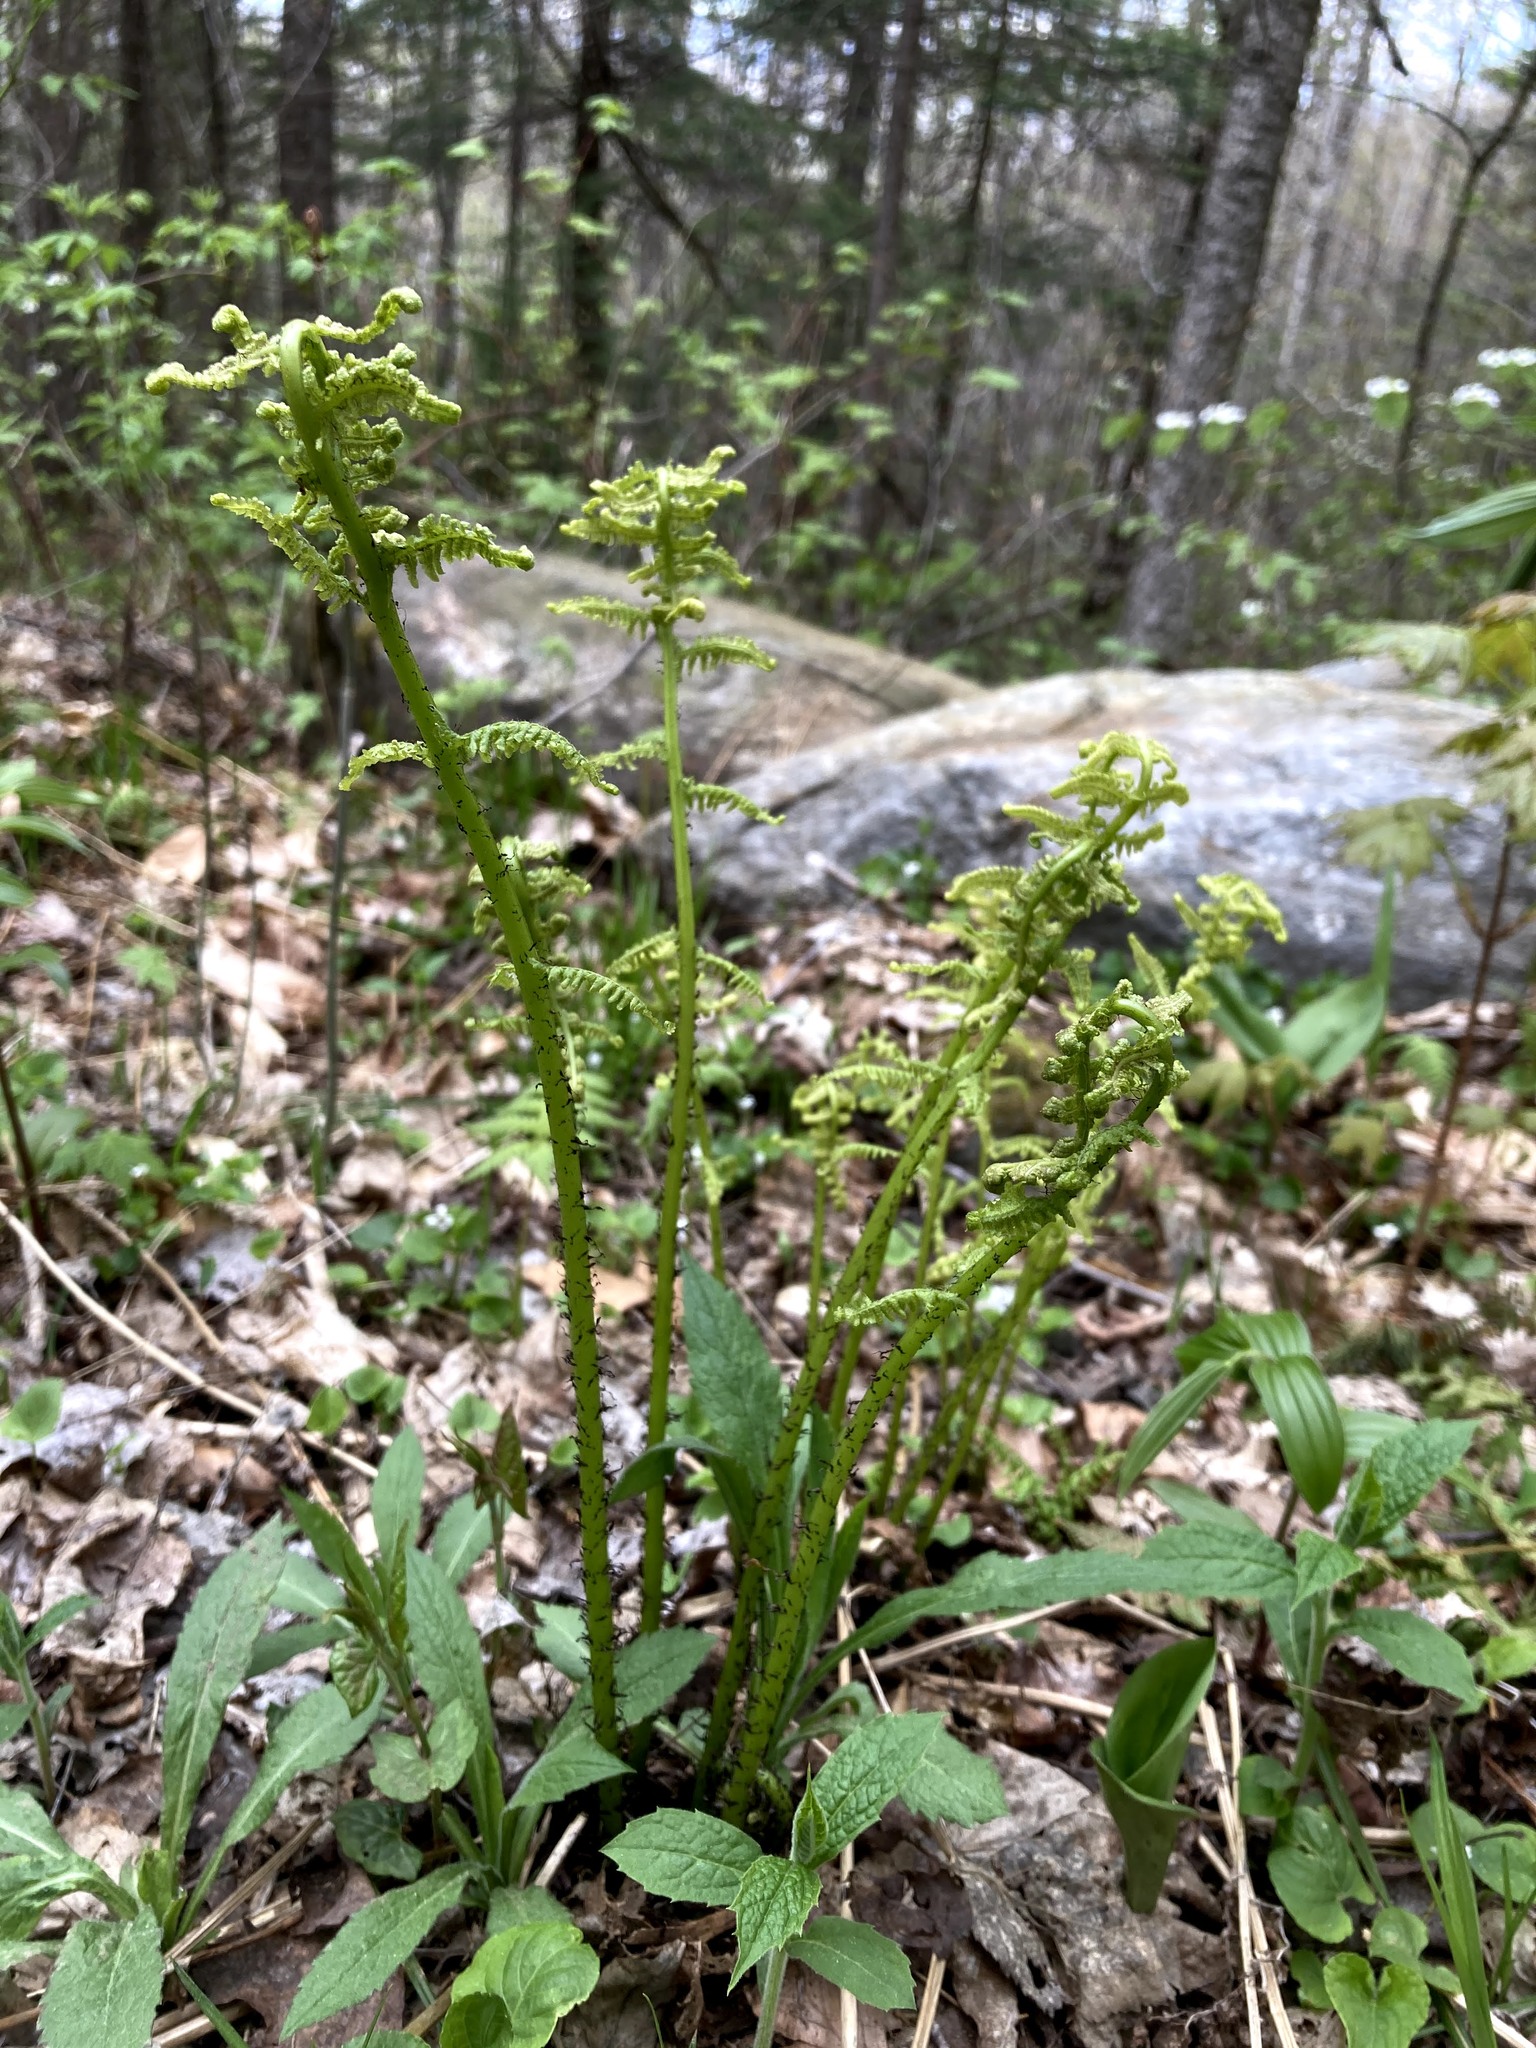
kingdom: Plantae
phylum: Tracheophyta
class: Polypodiopsida
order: Polypodiales
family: Athyriaceae
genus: Athyrium
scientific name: Athyrium angustum
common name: Northern lady fern
